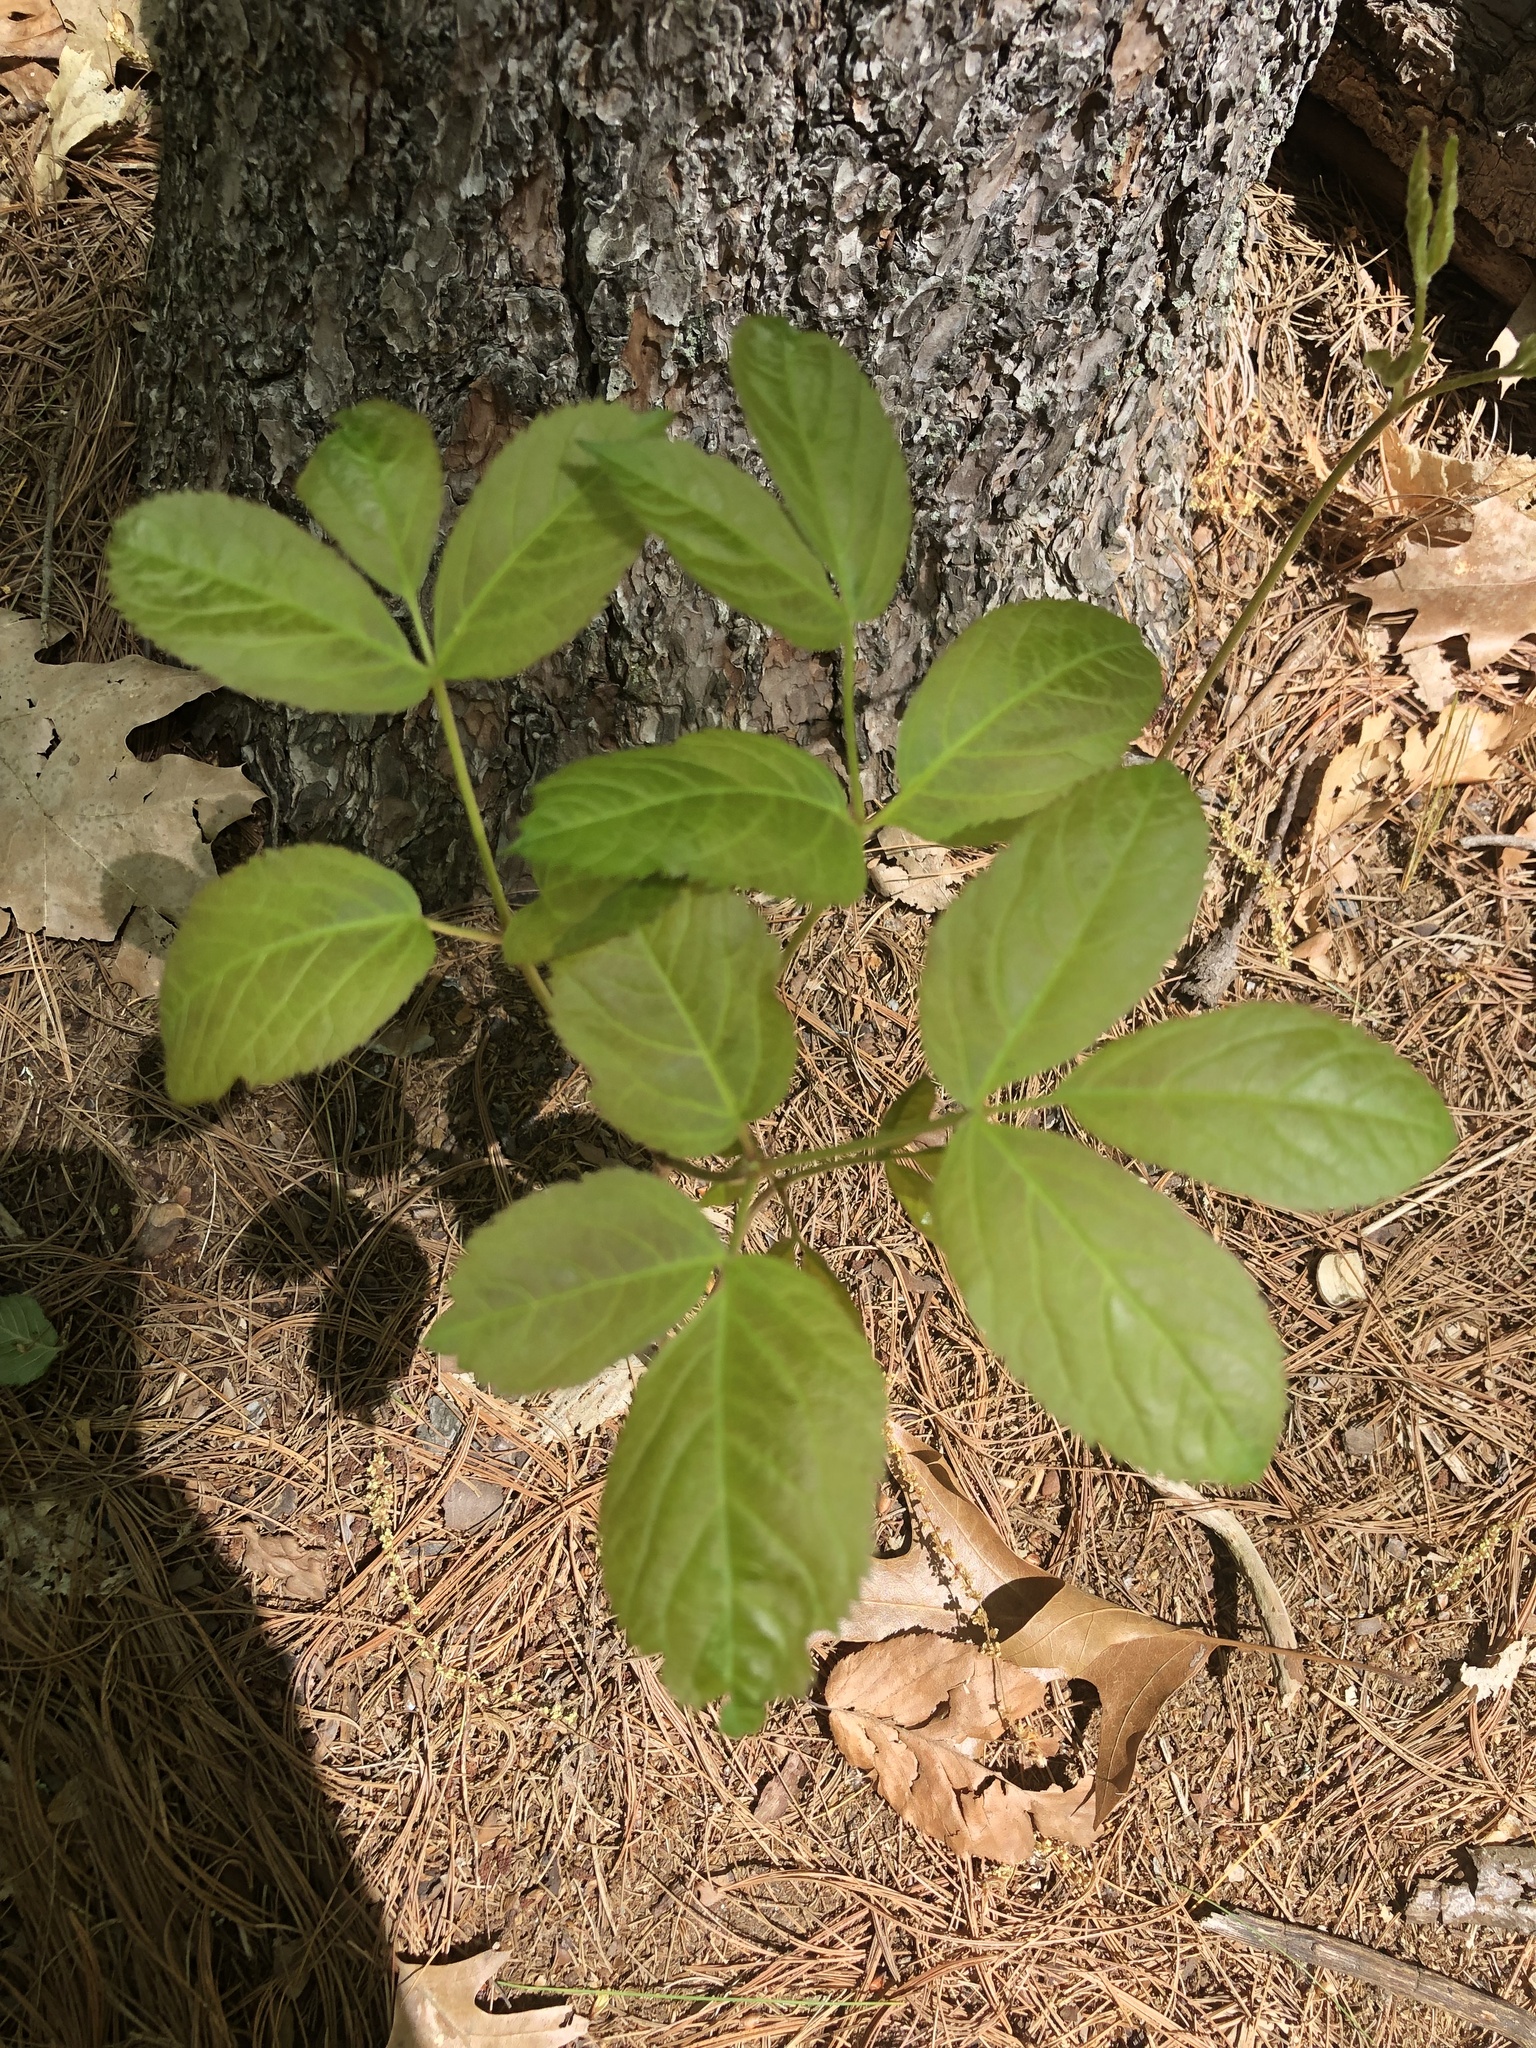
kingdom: Plantae
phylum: Tracheophyta
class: Magnoliopsida
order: Apiales
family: Araliaceae
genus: Aralia
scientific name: Aralia nudicaulis
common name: Wild sarsaparilla
